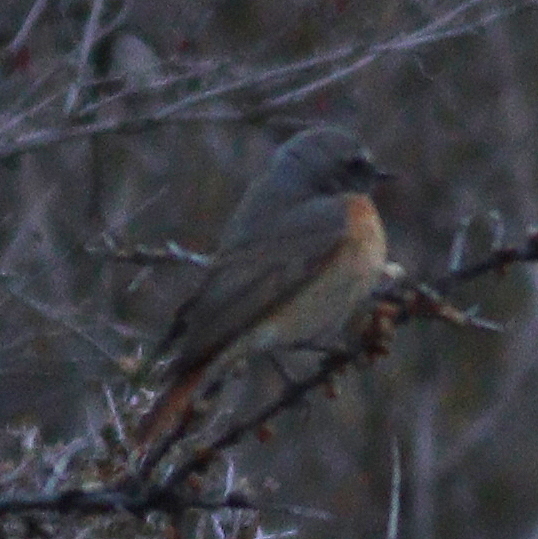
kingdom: Animalia
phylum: Chordata
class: Aves
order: Passeriformes
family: Muscicapidae
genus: Phoenicurus
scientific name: Phoenicurus phoenicurus
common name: Common redstart
